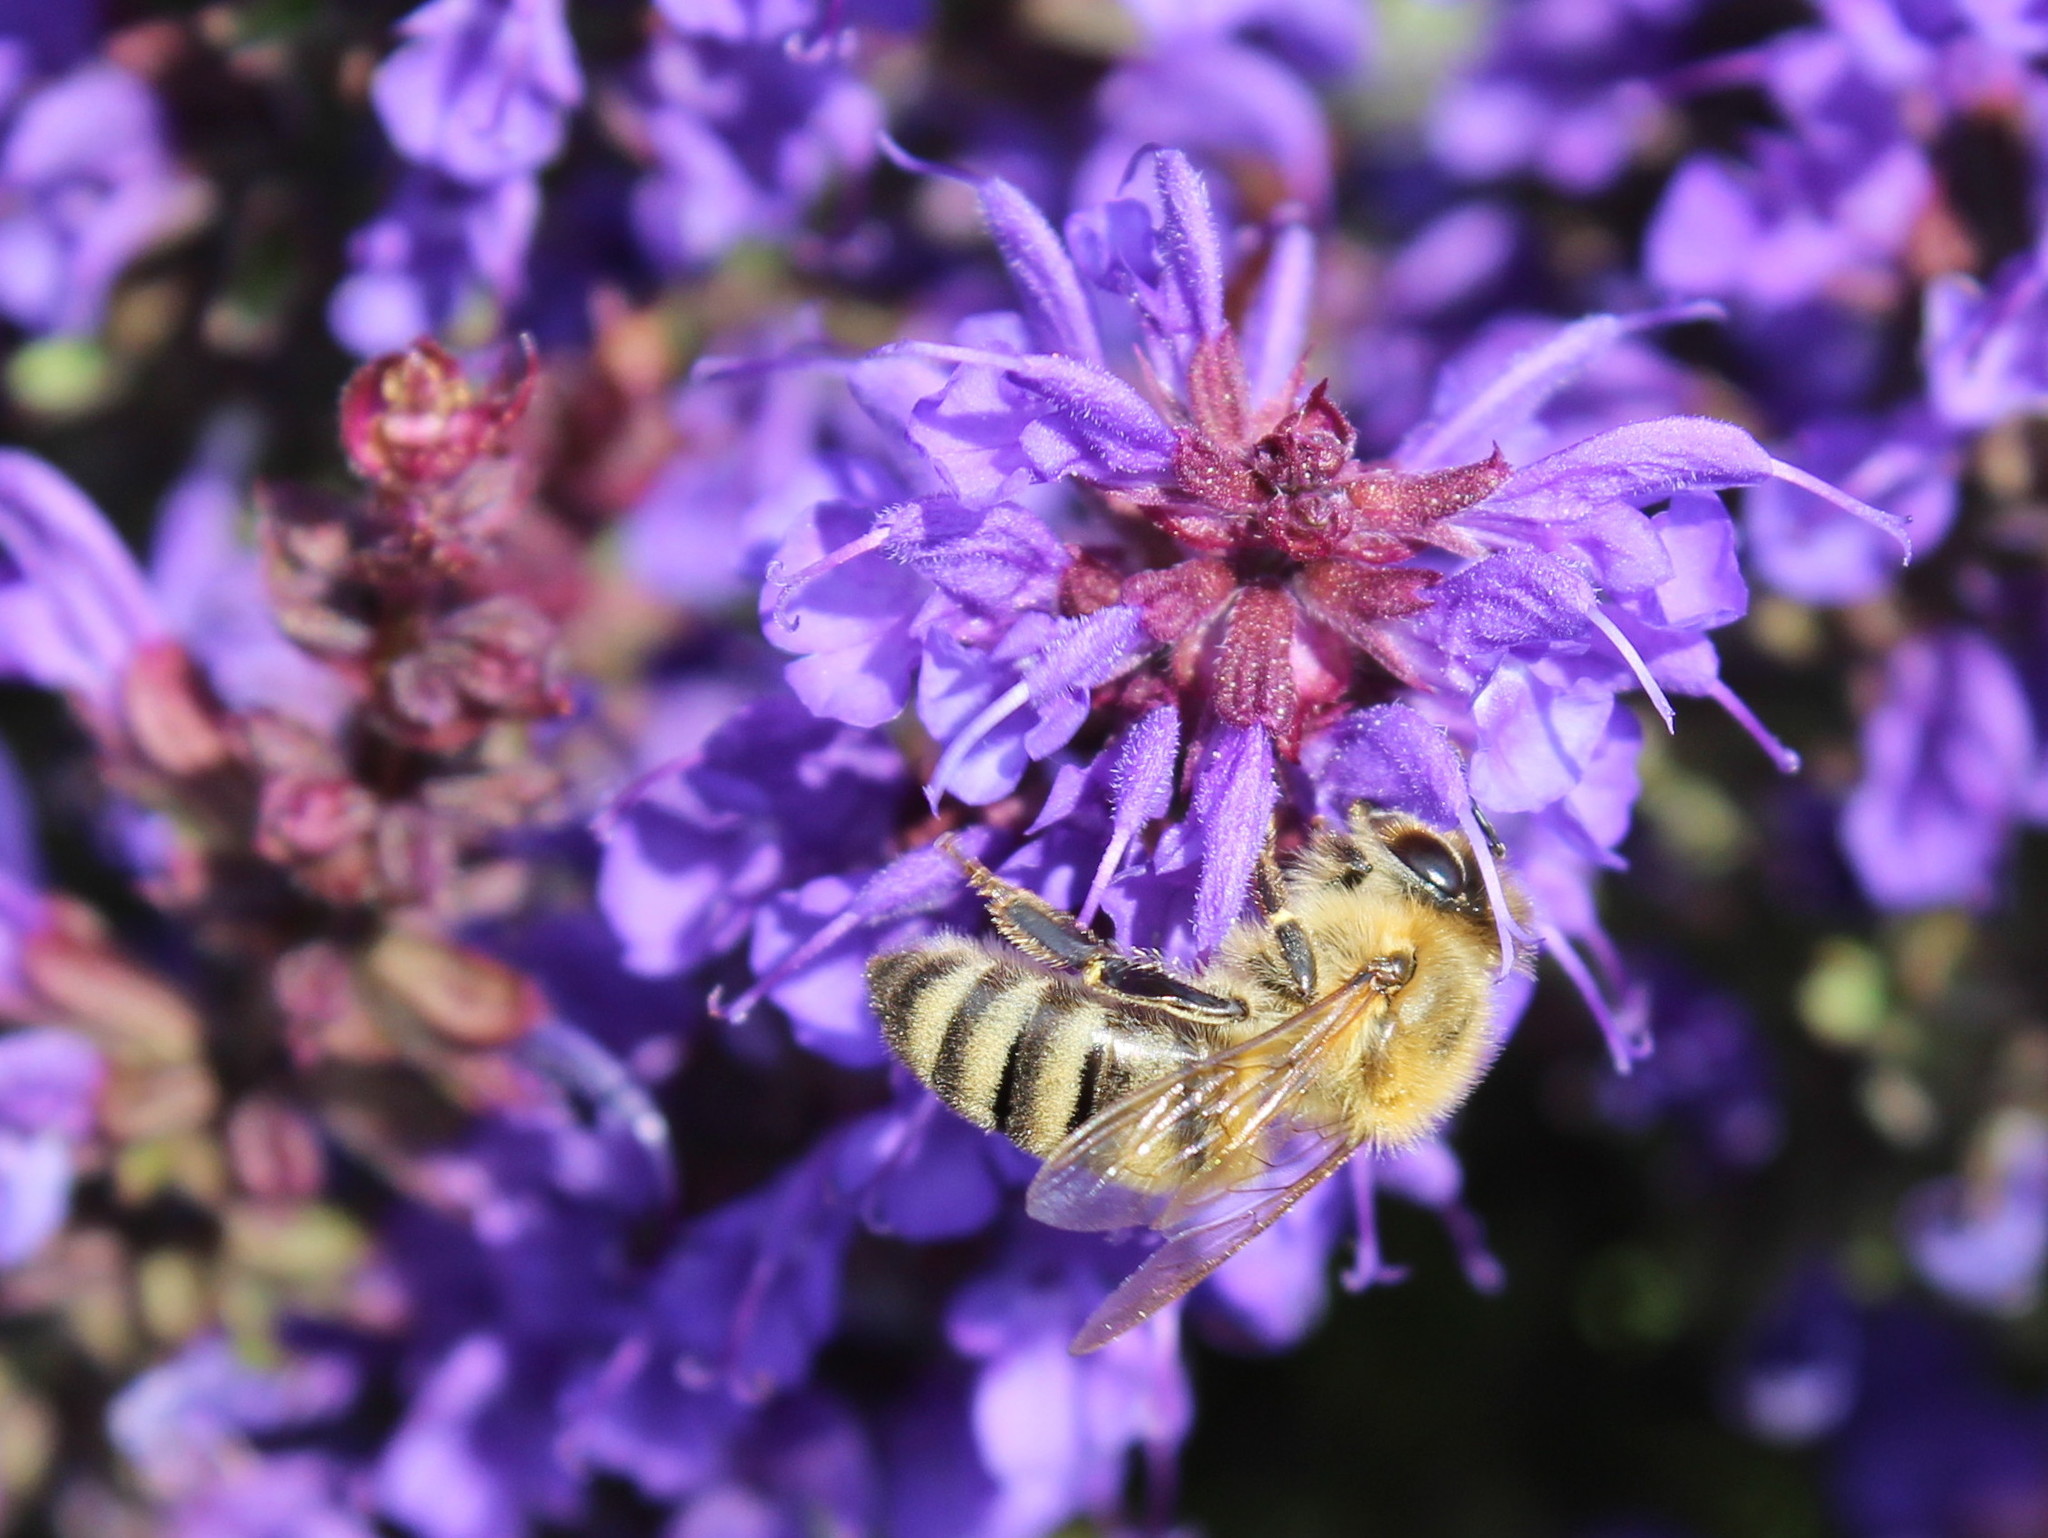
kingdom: Animalia
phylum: Arthropoda
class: Insecta
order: Hymenoptera
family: Apidae
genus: Apis
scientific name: Apis mellifera
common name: Honey bee
